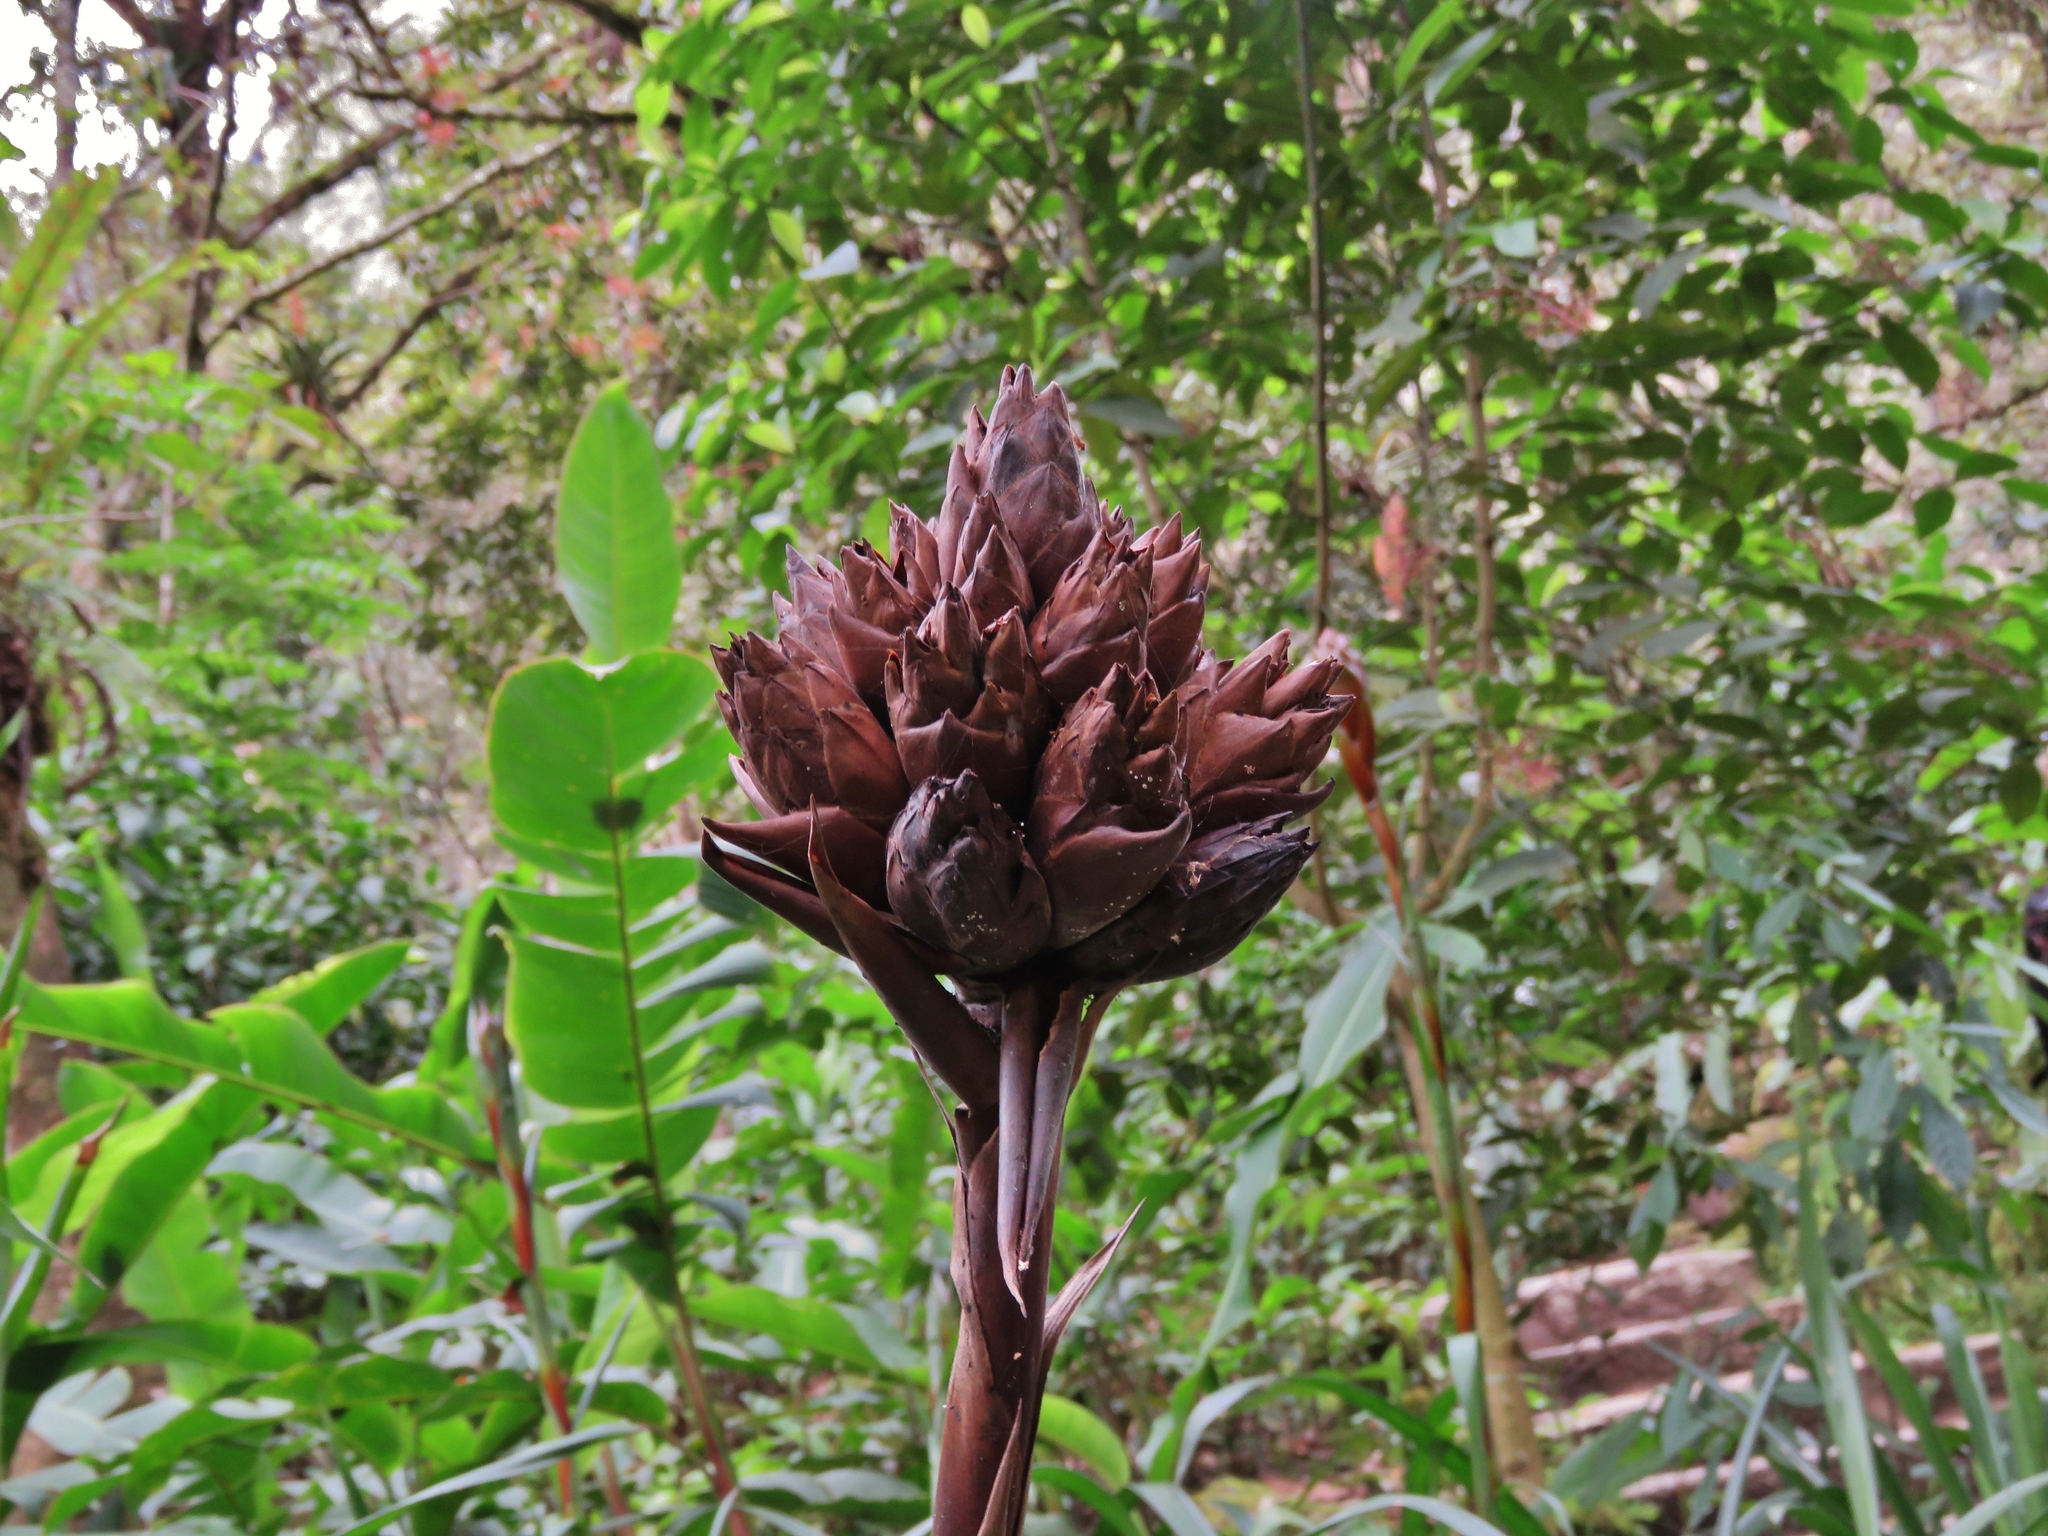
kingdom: Plantae
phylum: Tracheophyta
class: Liliopsida
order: Poales
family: Bromeliaceae
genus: Guzmania
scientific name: Guzmania inkaterrae
